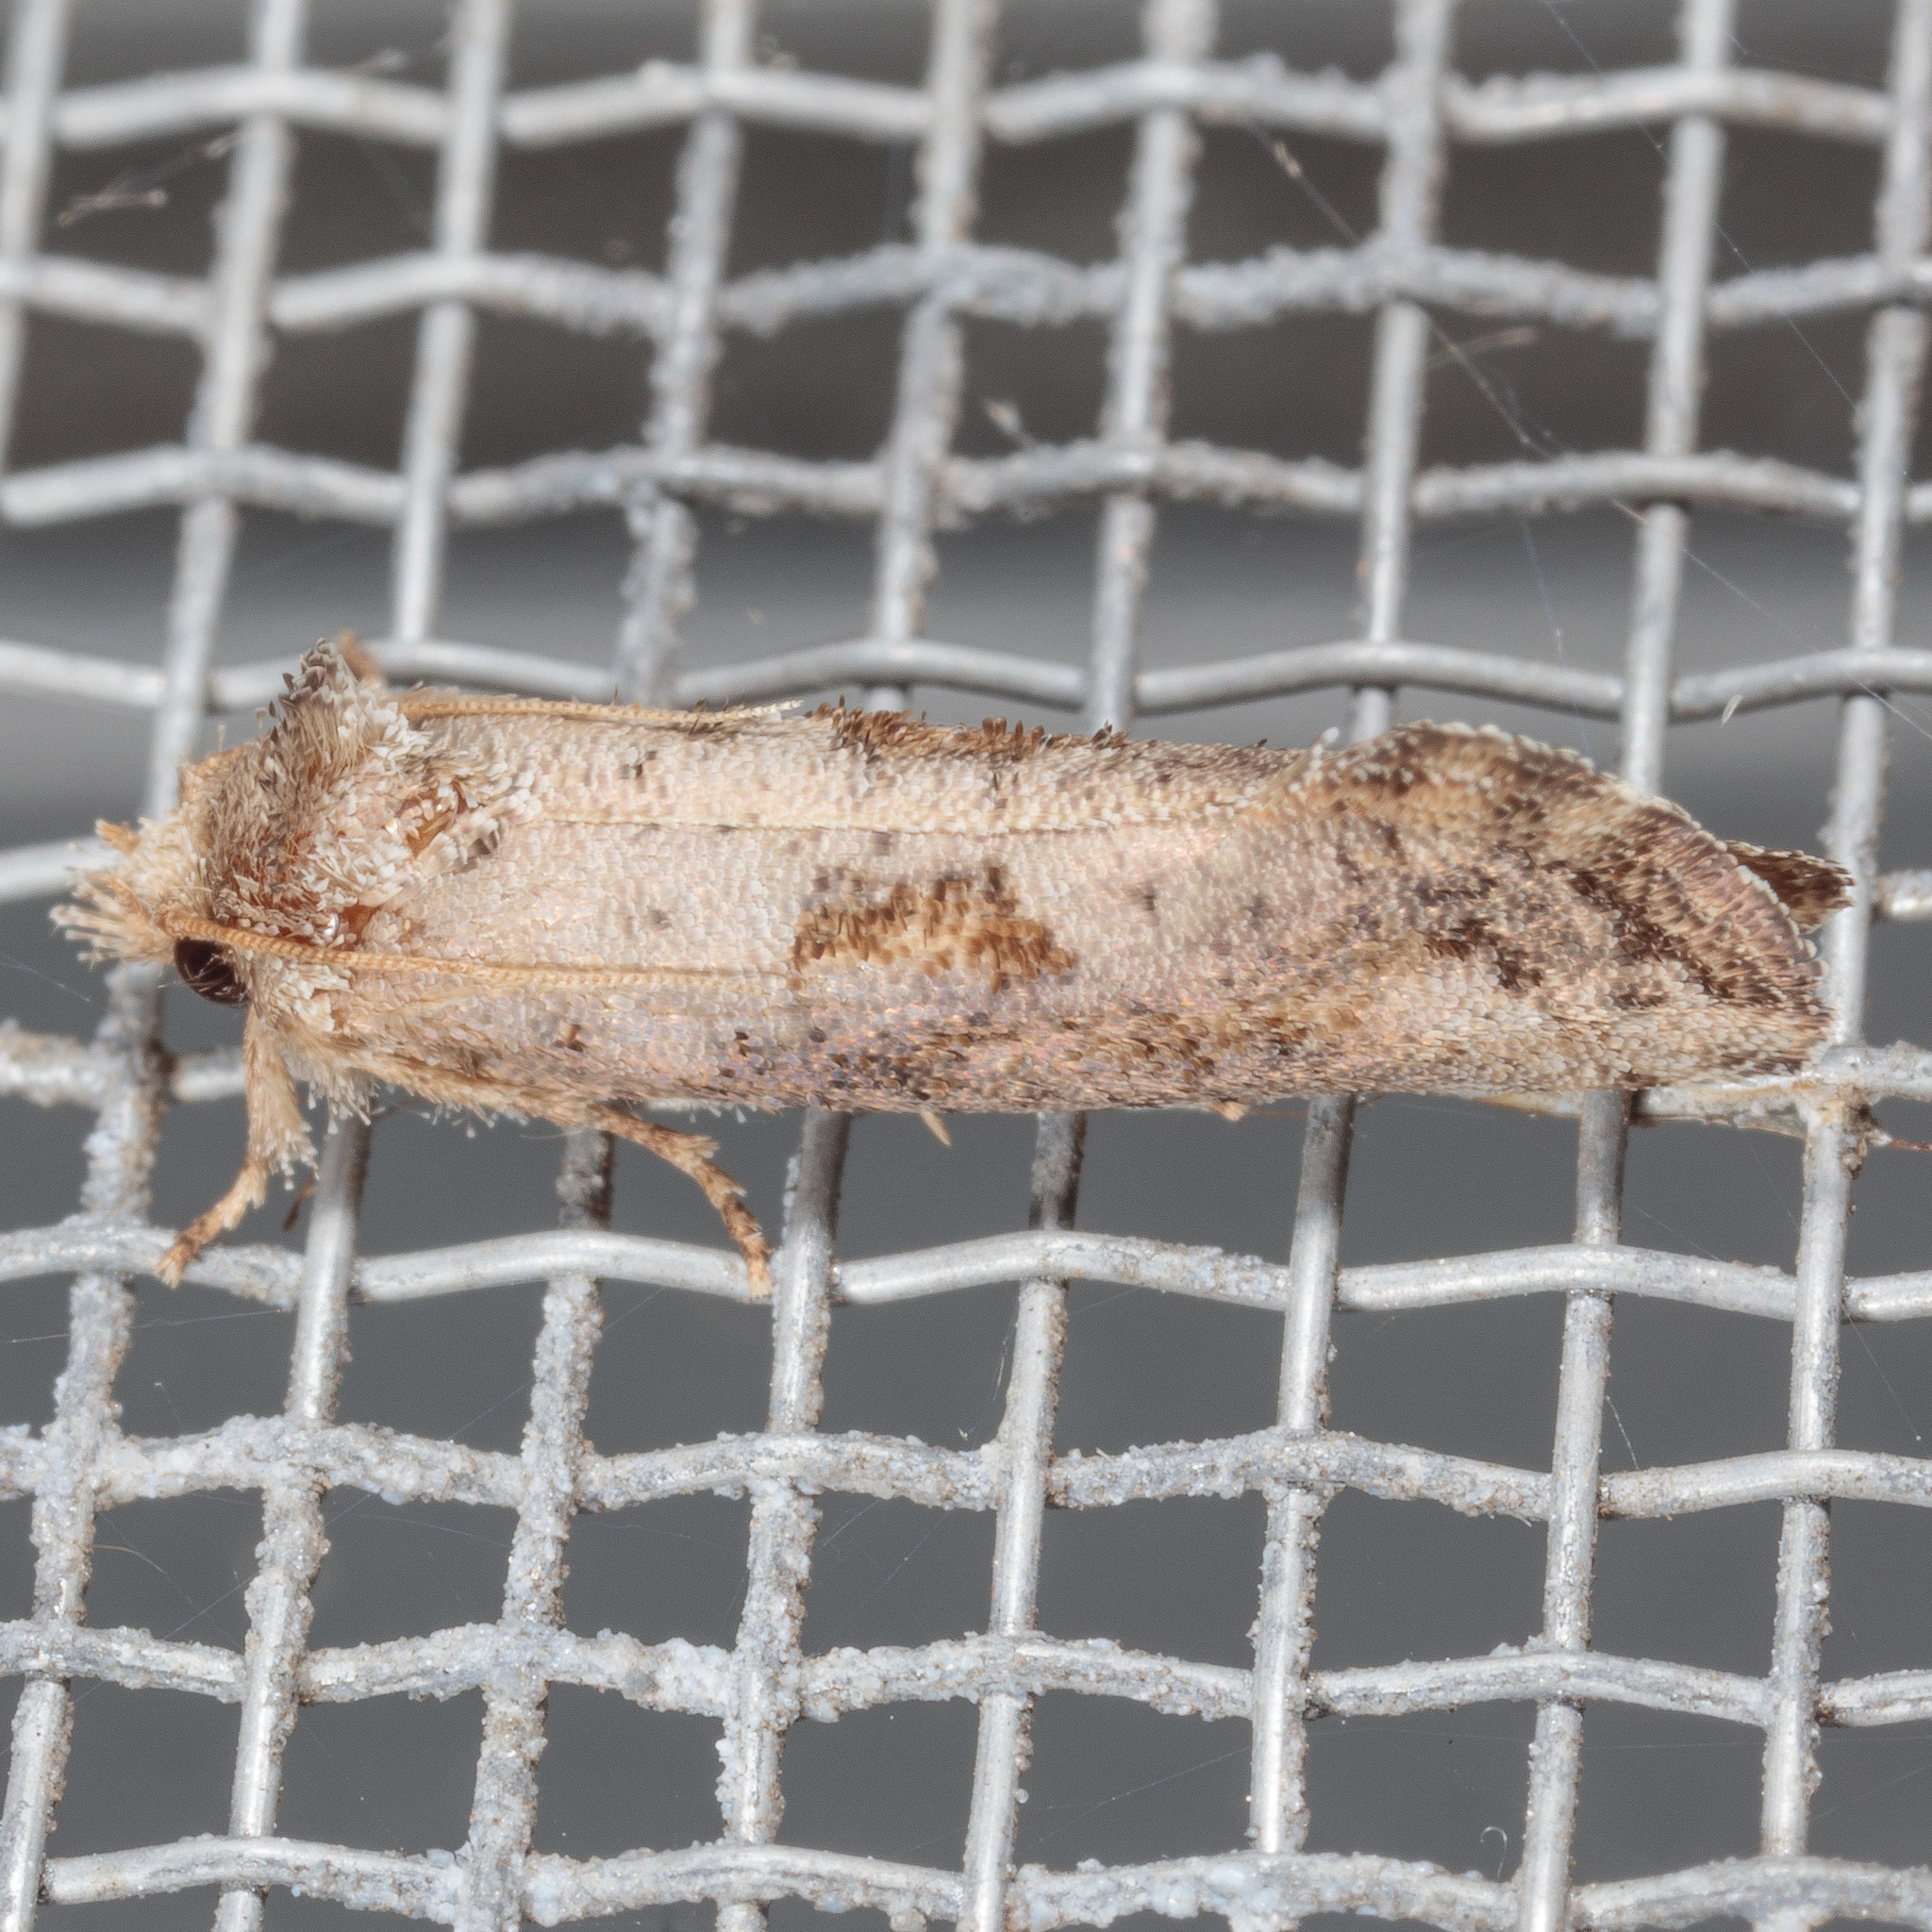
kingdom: Animalia
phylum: Arthropoda
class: Insecta
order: Lepidoptera
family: Tineidae
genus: Acrolophus
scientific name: Acrolophus piger
